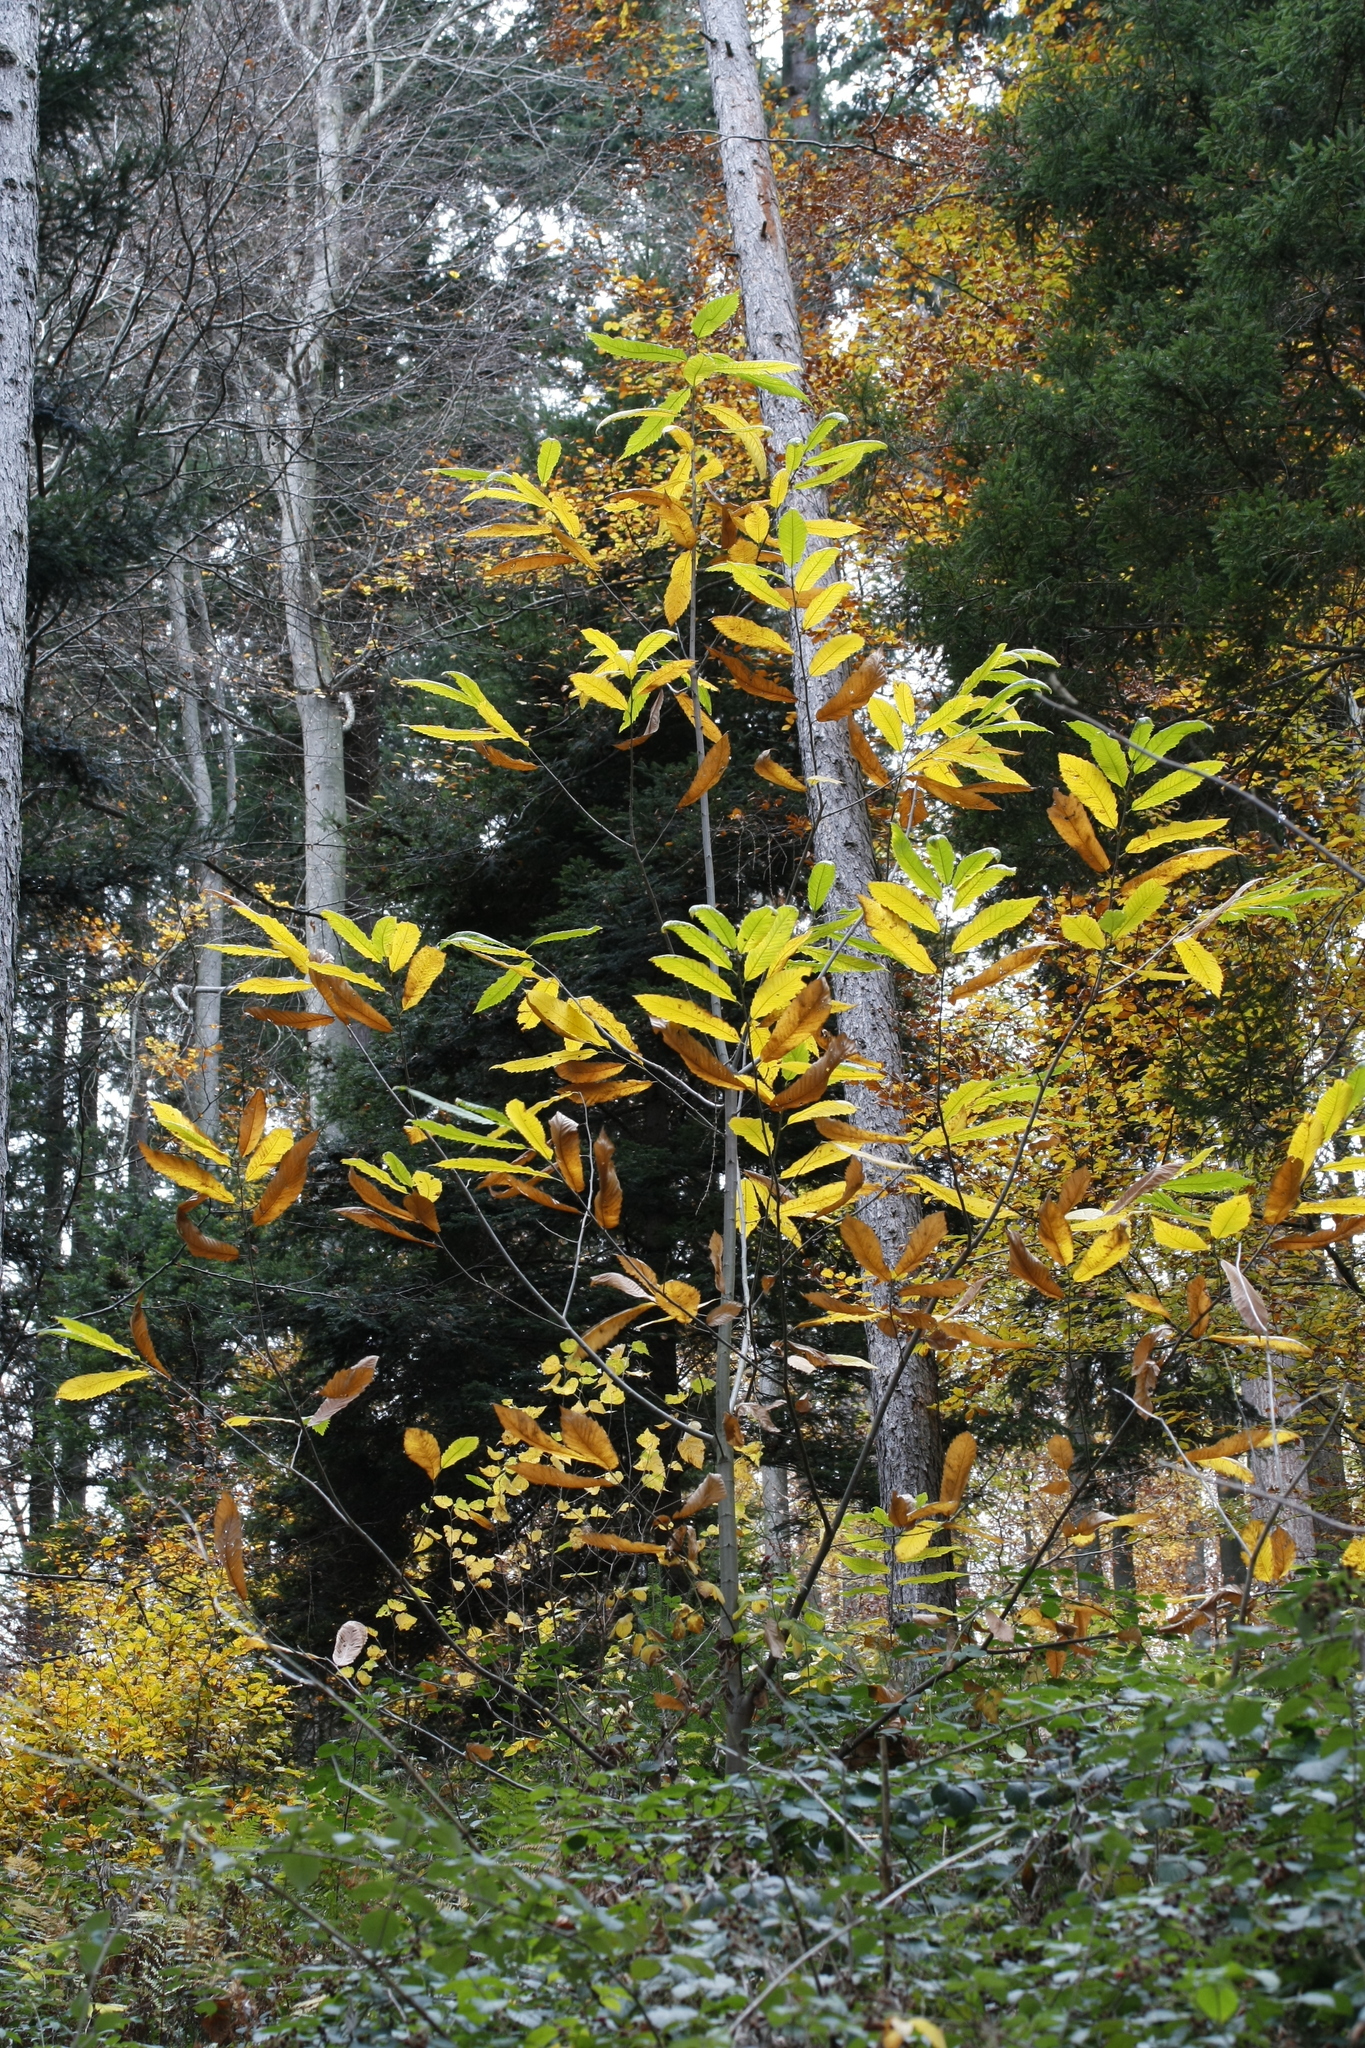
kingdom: Plantae
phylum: Tracheophyta
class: Magnoliopsida
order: Fagales
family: Fagaceae
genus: Castanea
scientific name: Castanea sativa
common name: Sweet chestnut
